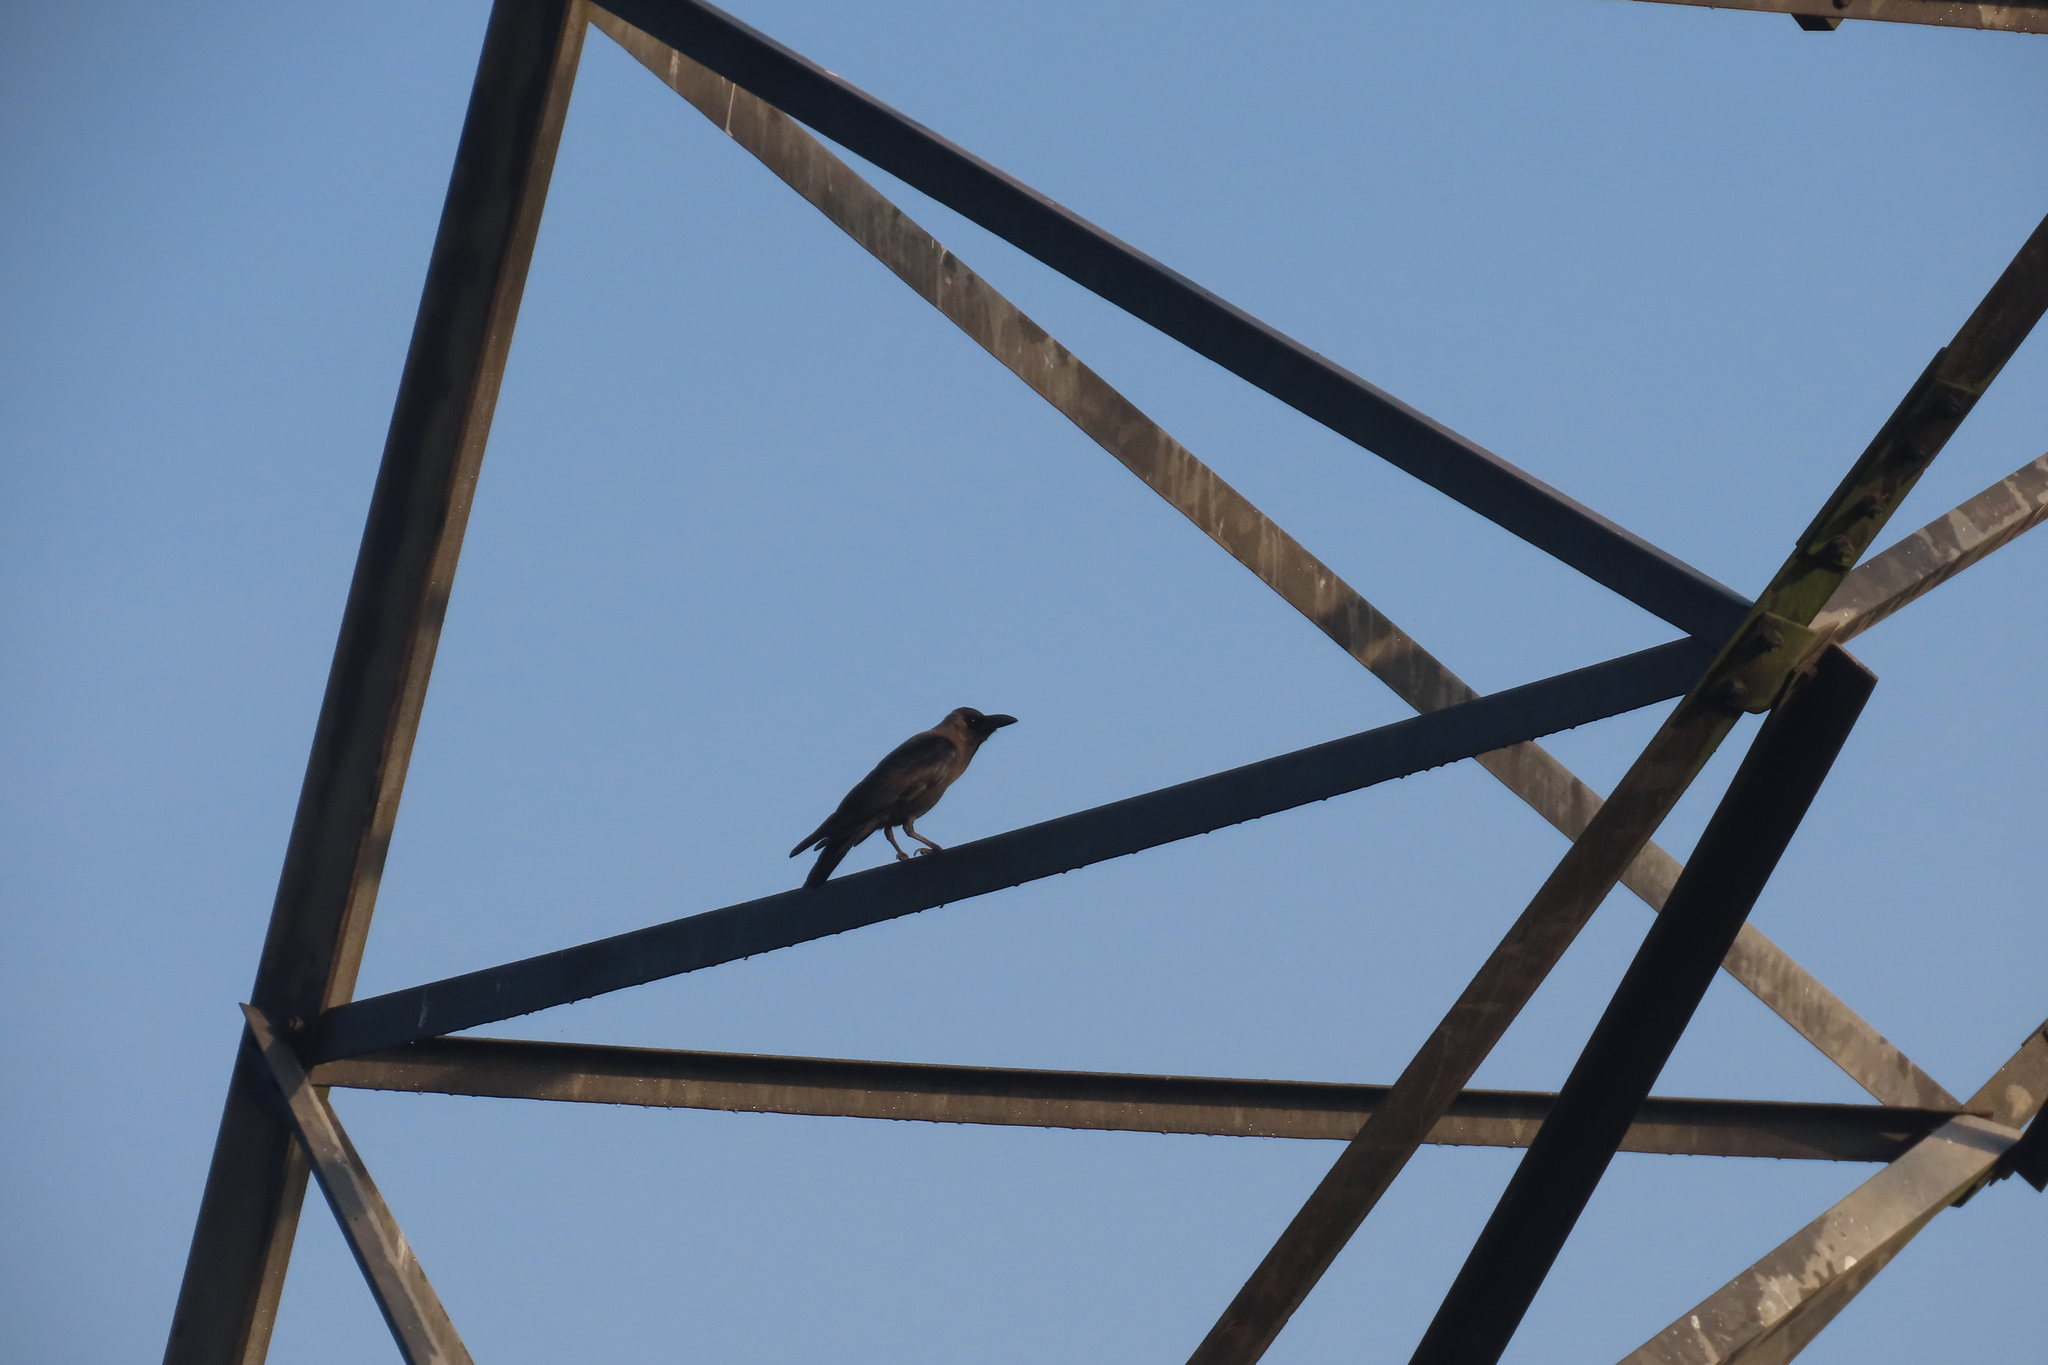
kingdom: Animalia
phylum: Chordata
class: Aves
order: Passeriformes
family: Corvidae
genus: Corvus
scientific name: Corvus splendens
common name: House crow
